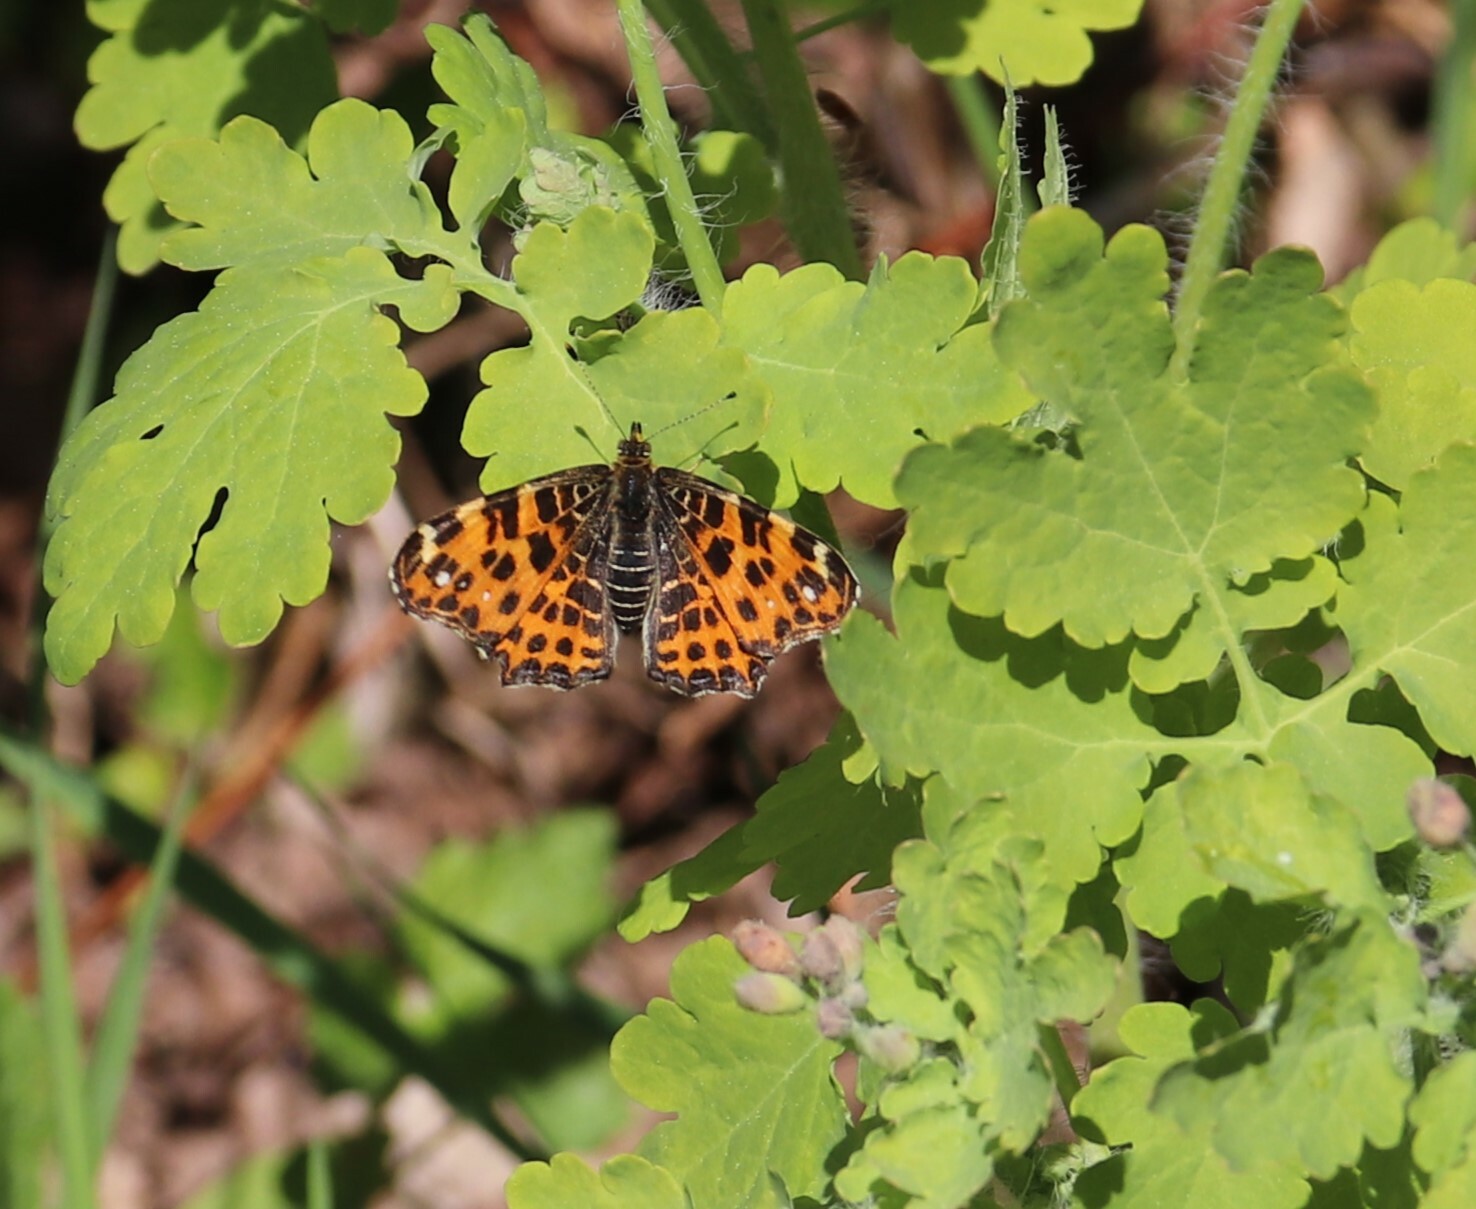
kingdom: Animalia
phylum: Arthropoda
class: Insecta
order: Lepidoptera
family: Nymphalidae
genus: Araschnia
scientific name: Araschnia levana
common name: Map butterfly
